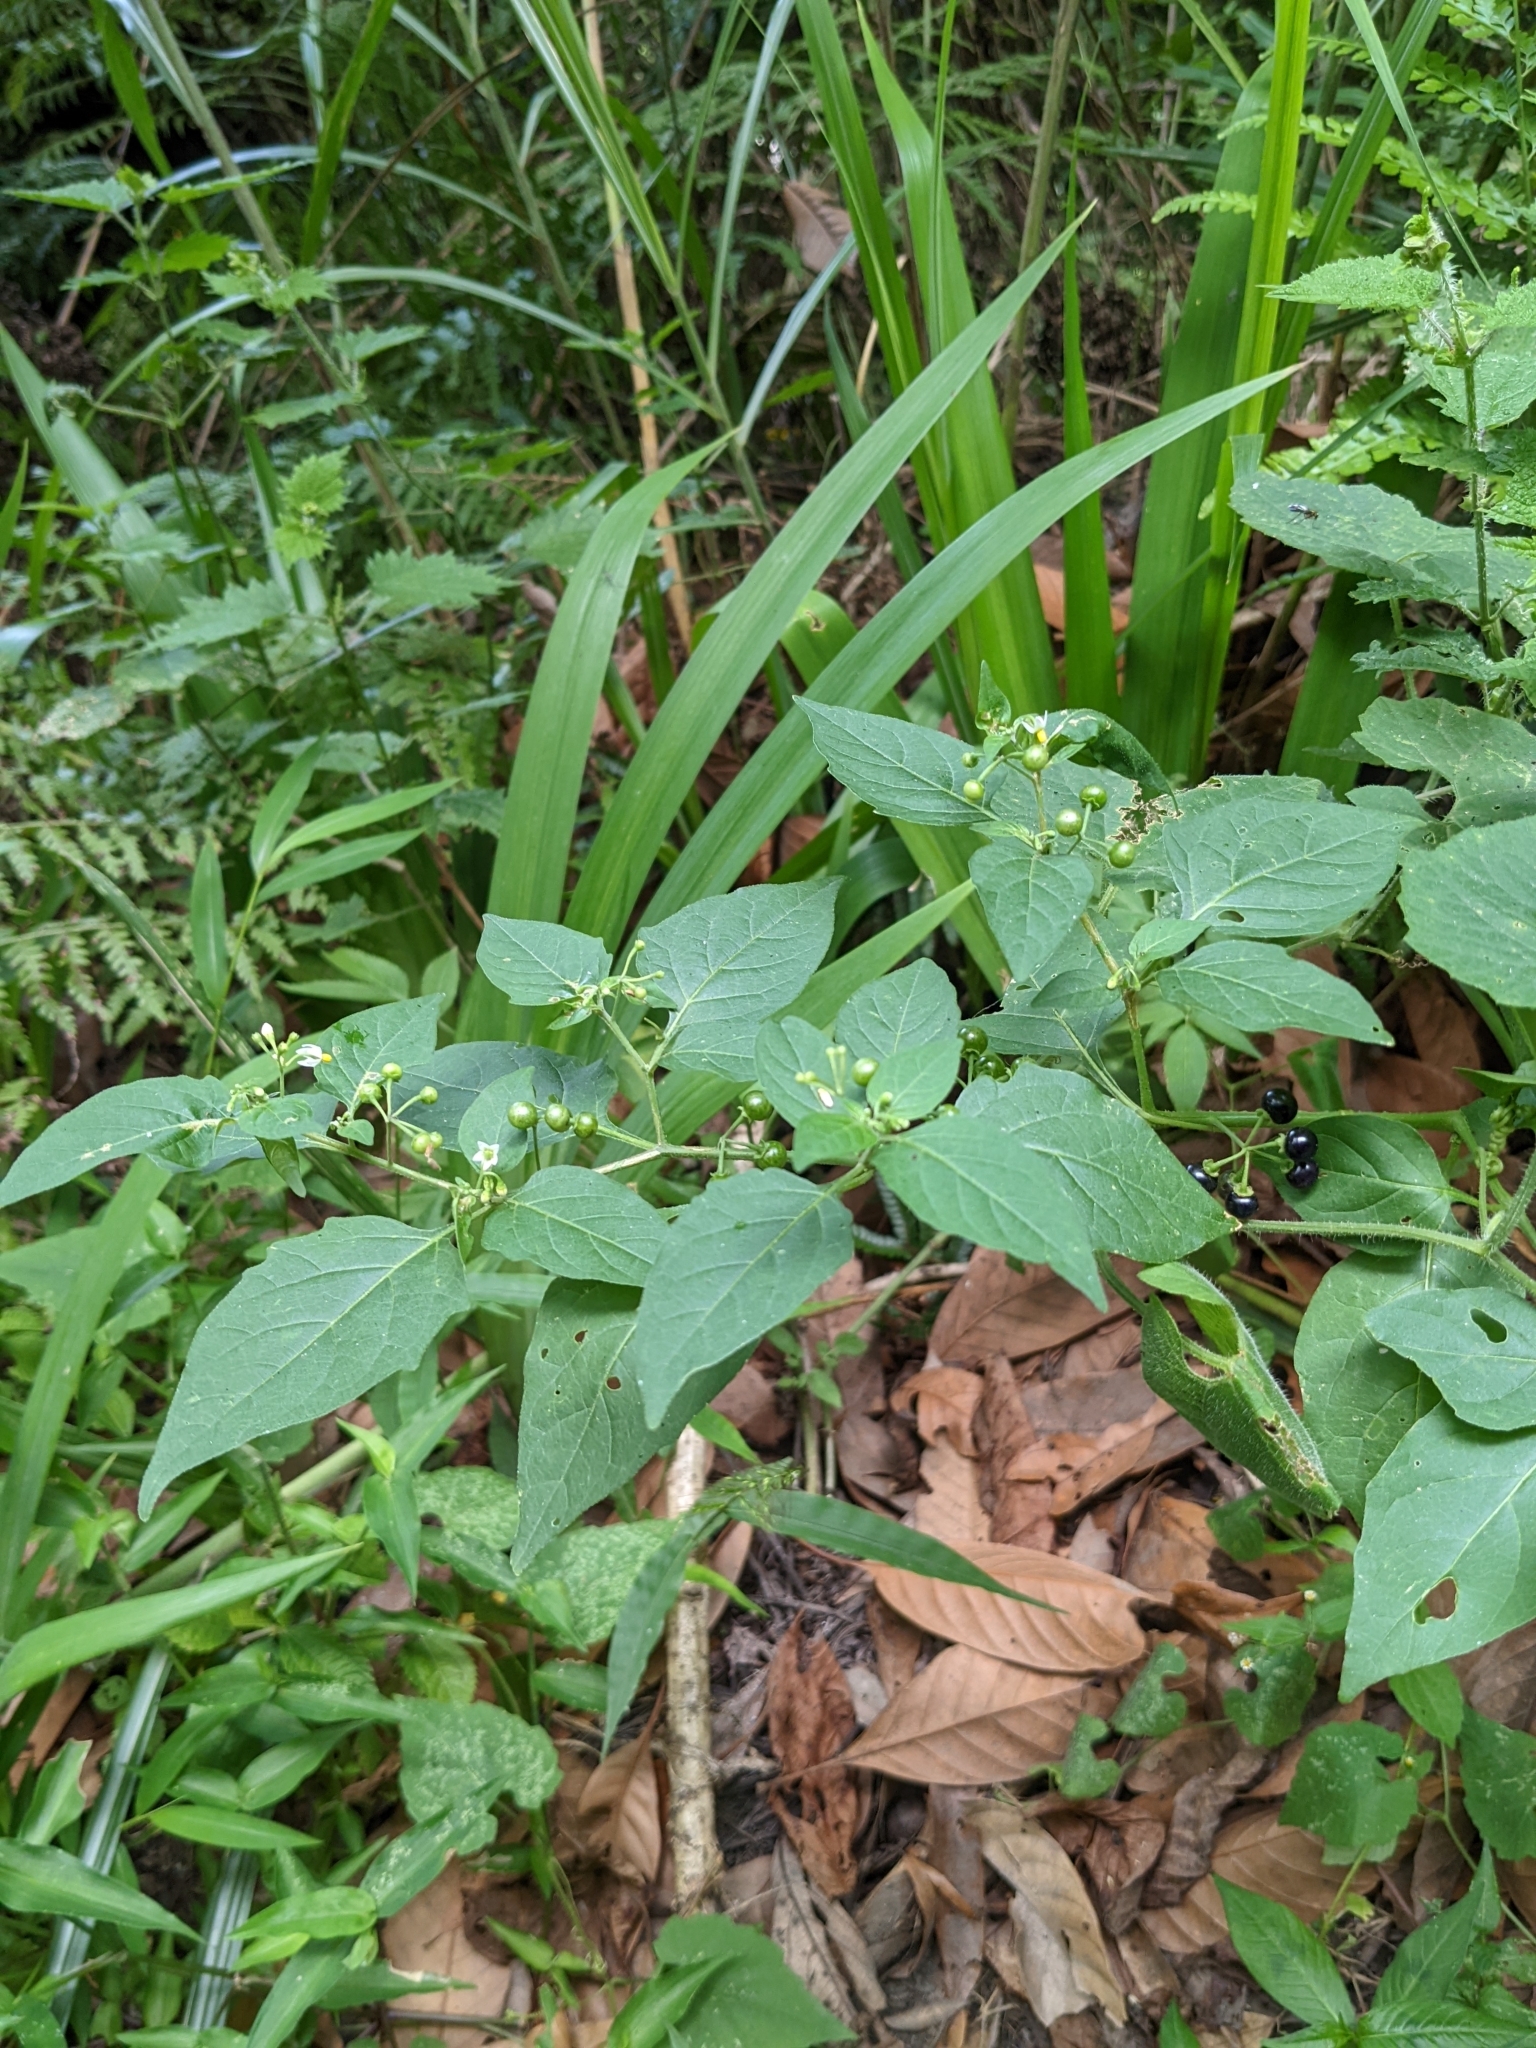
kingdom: Plantae
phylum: Tracheophyta
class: Magnoliopsida
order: Solanales
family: Solanaceae
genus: Solanum
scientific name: Solanum americanum
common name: American black nightshade
